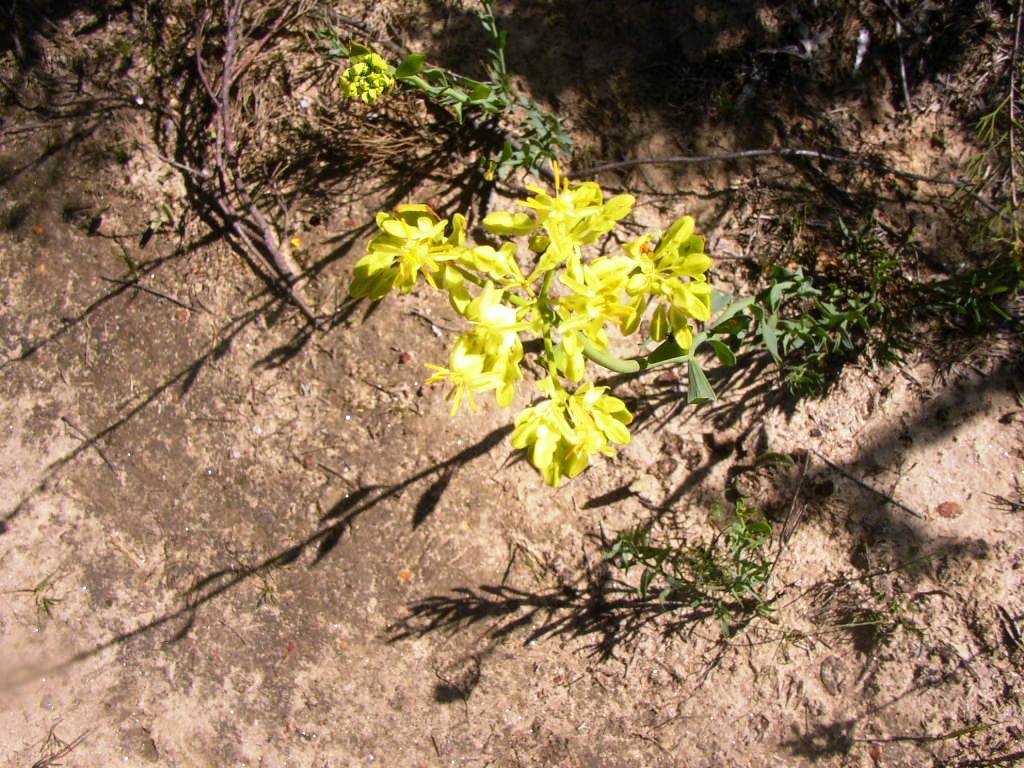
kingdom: Plantae
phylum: Tracheophyta
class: Magnoliopsida
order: Saxifragales
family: Haloragaceae
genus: Glischrocaryon
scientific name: Glischrocaryon aureum
